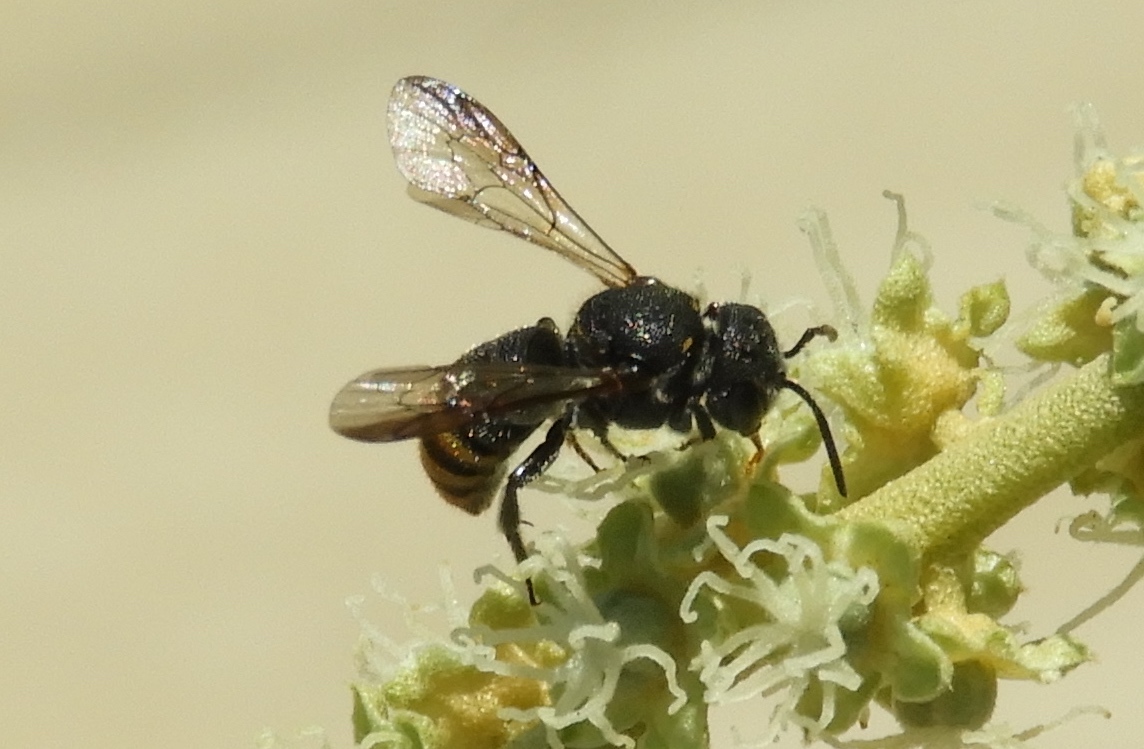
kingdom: Animalia
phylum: Arthropoda
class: Insecta
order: Hymenoptera
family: Megachilidae
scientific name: Megachilidae
